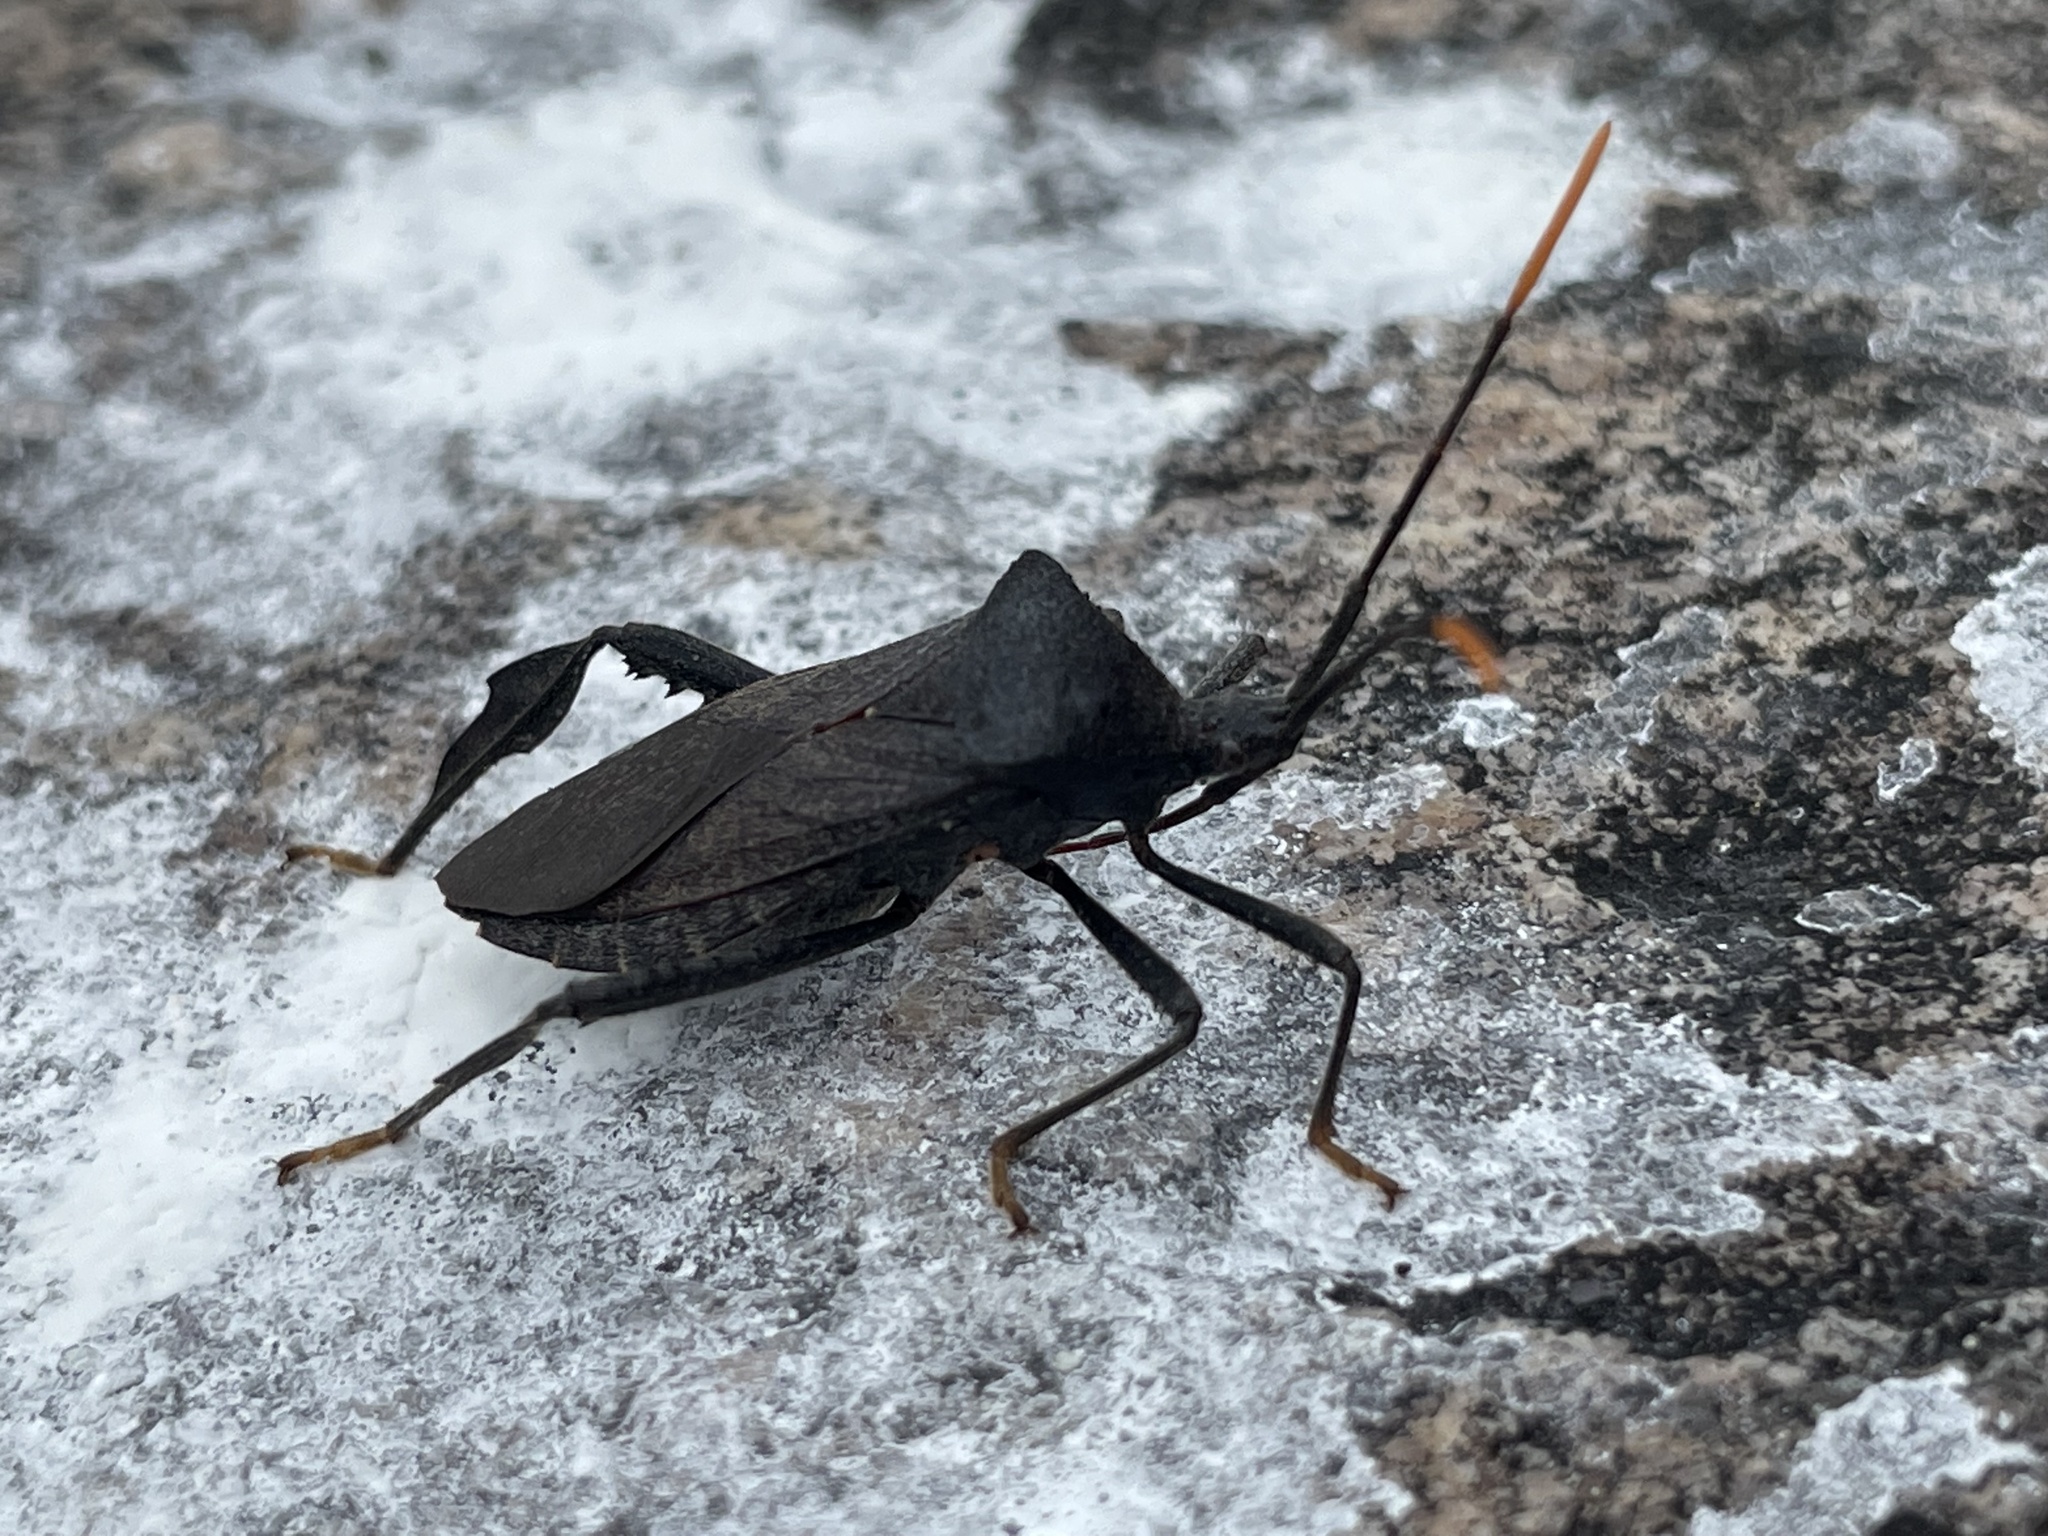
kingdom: Animalia
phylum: Arthropoda
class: Insecta
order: Hemiptera
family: Coreidae
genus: Acanthocephala
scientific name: Acanthocephala terminalis
